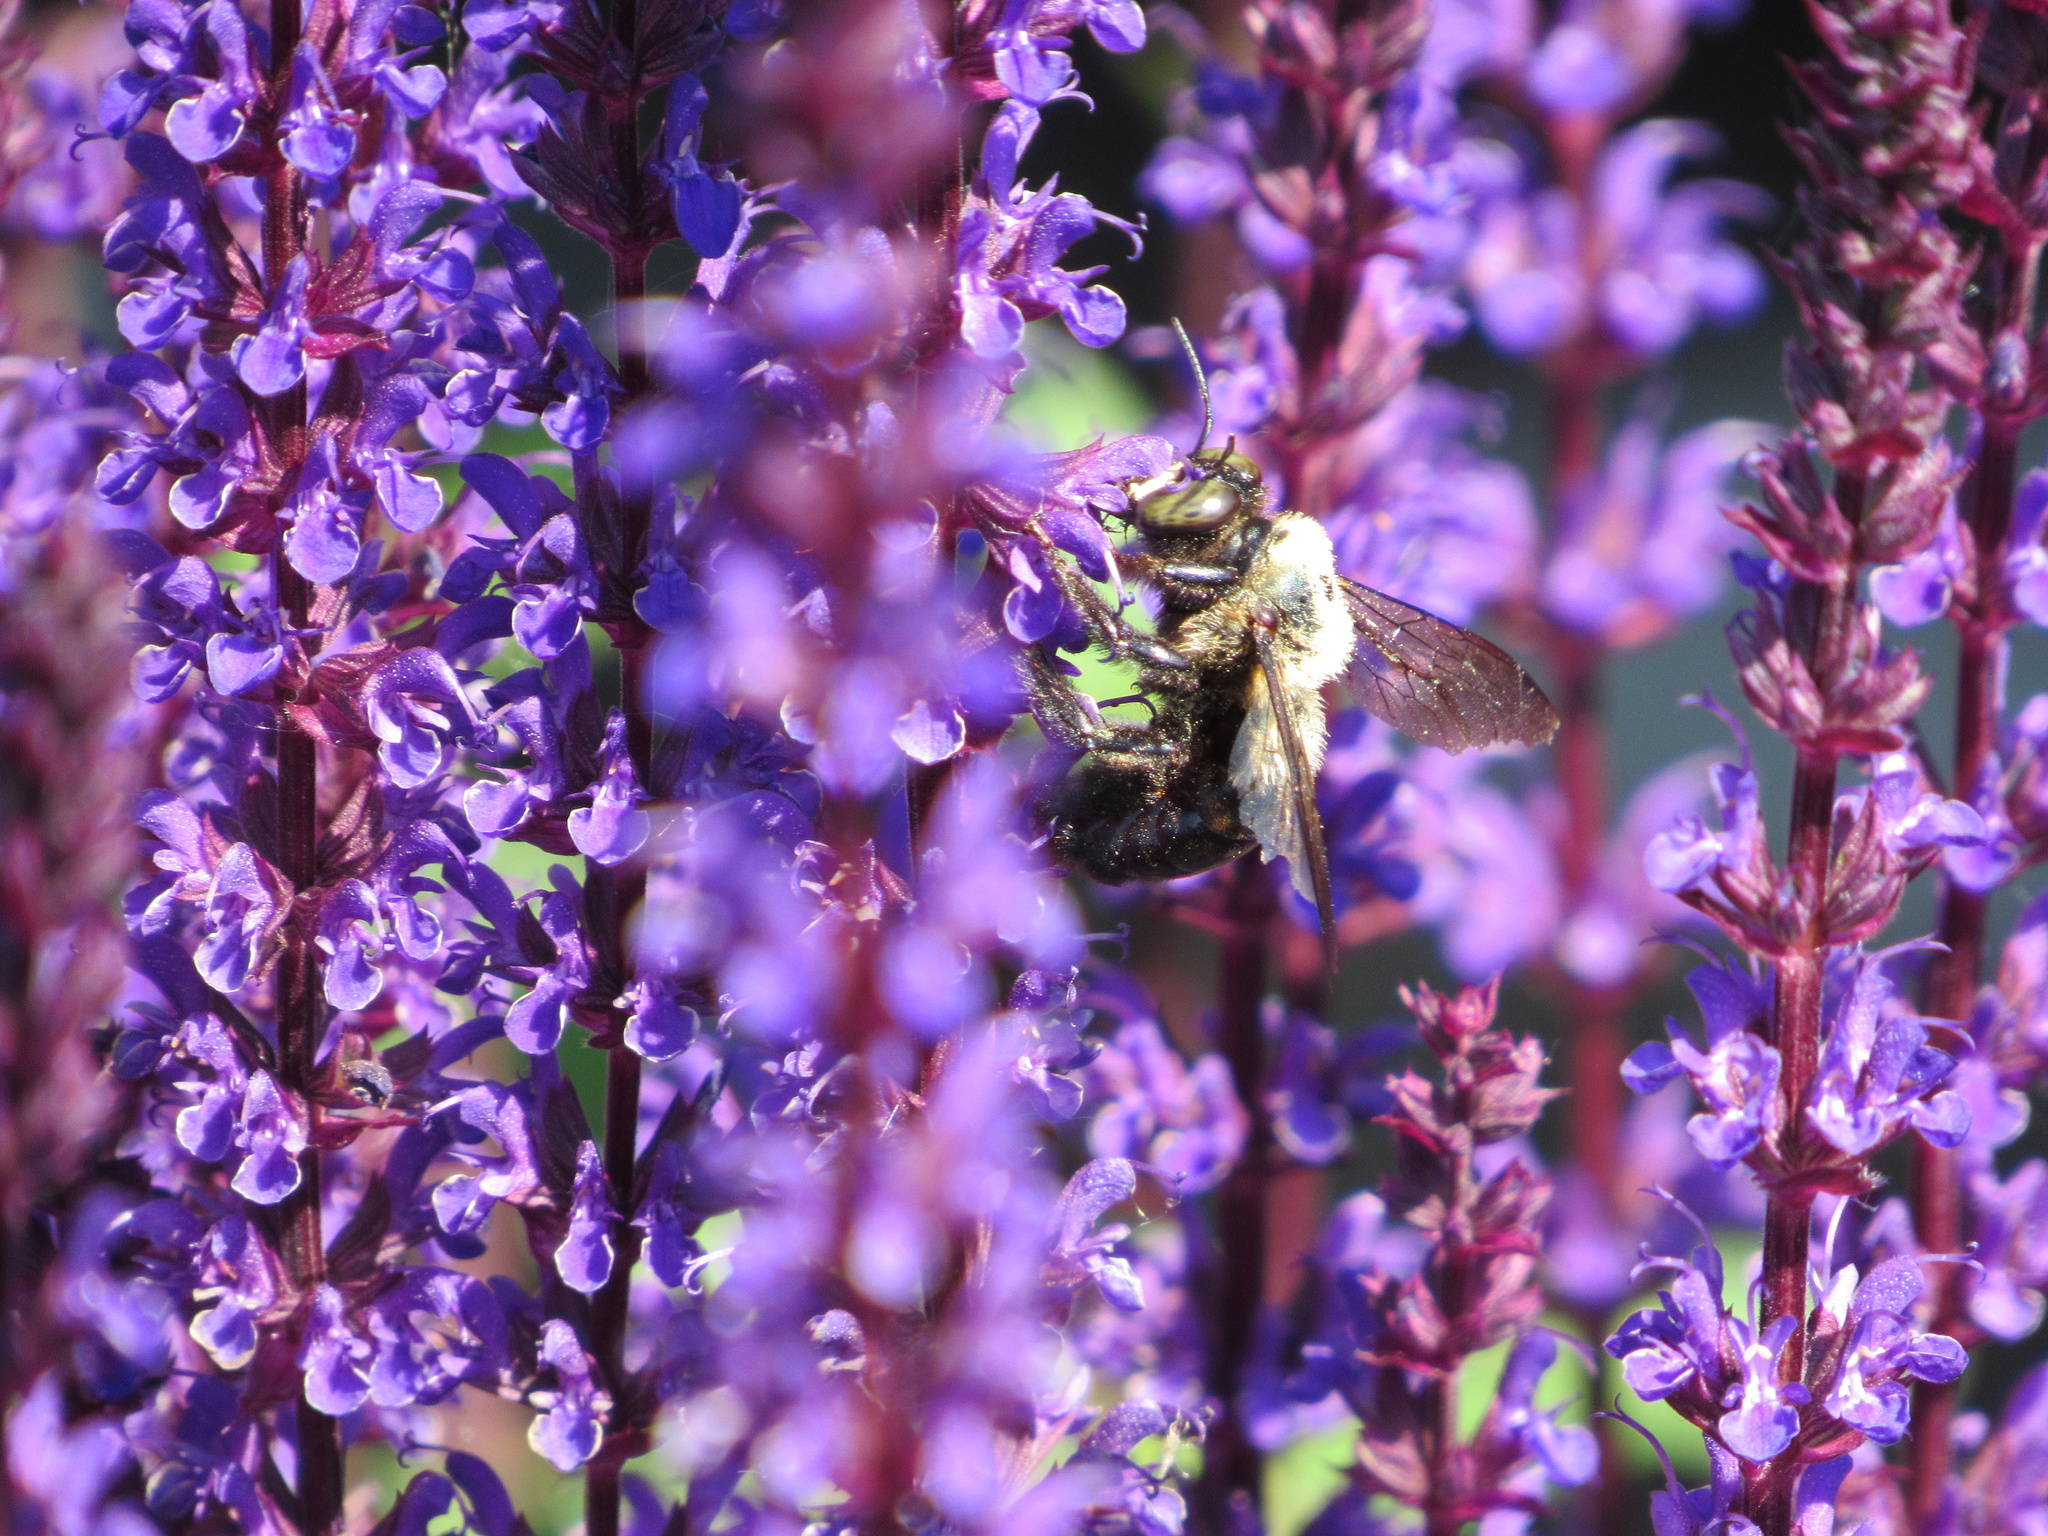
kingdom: Animalia
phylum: Arthropoda
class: Insecta
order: Hymenoptera
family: Apidae
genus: Xylocopa
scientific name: Xylocopa virginica
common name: Carpenter bee
